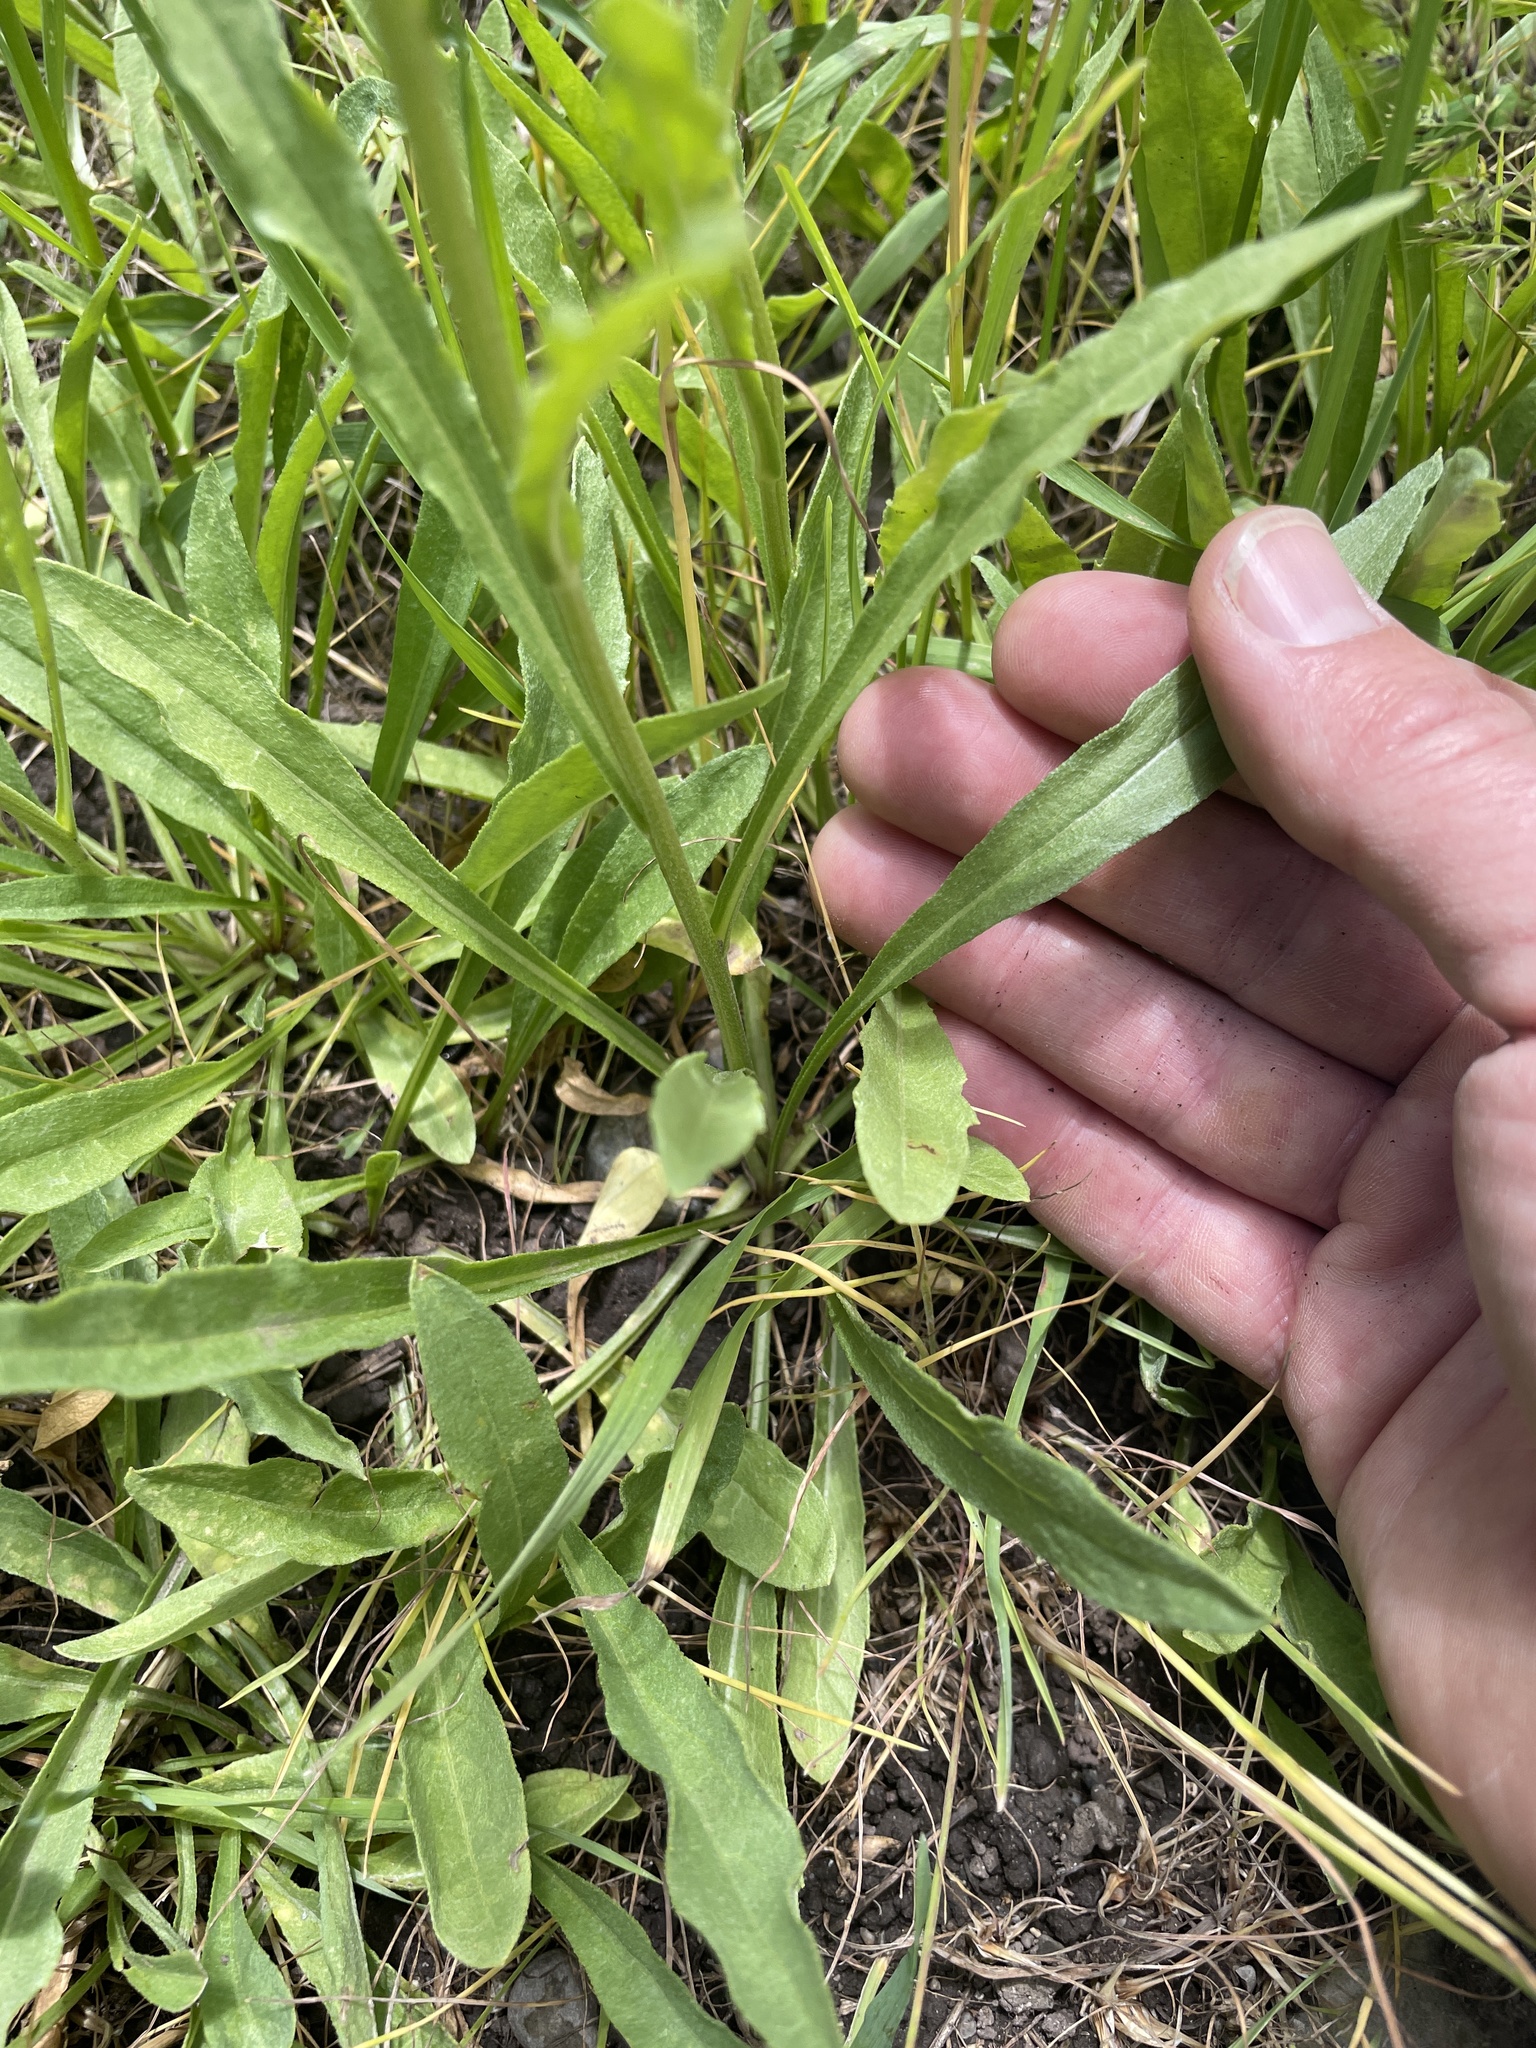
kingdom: Plantae
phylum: Tracheophyta
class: Magnoliopsida
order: Asterales
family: Asteraceae
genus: Erigeron
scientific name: Erigeron glabellus
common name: Smooth fleabane
